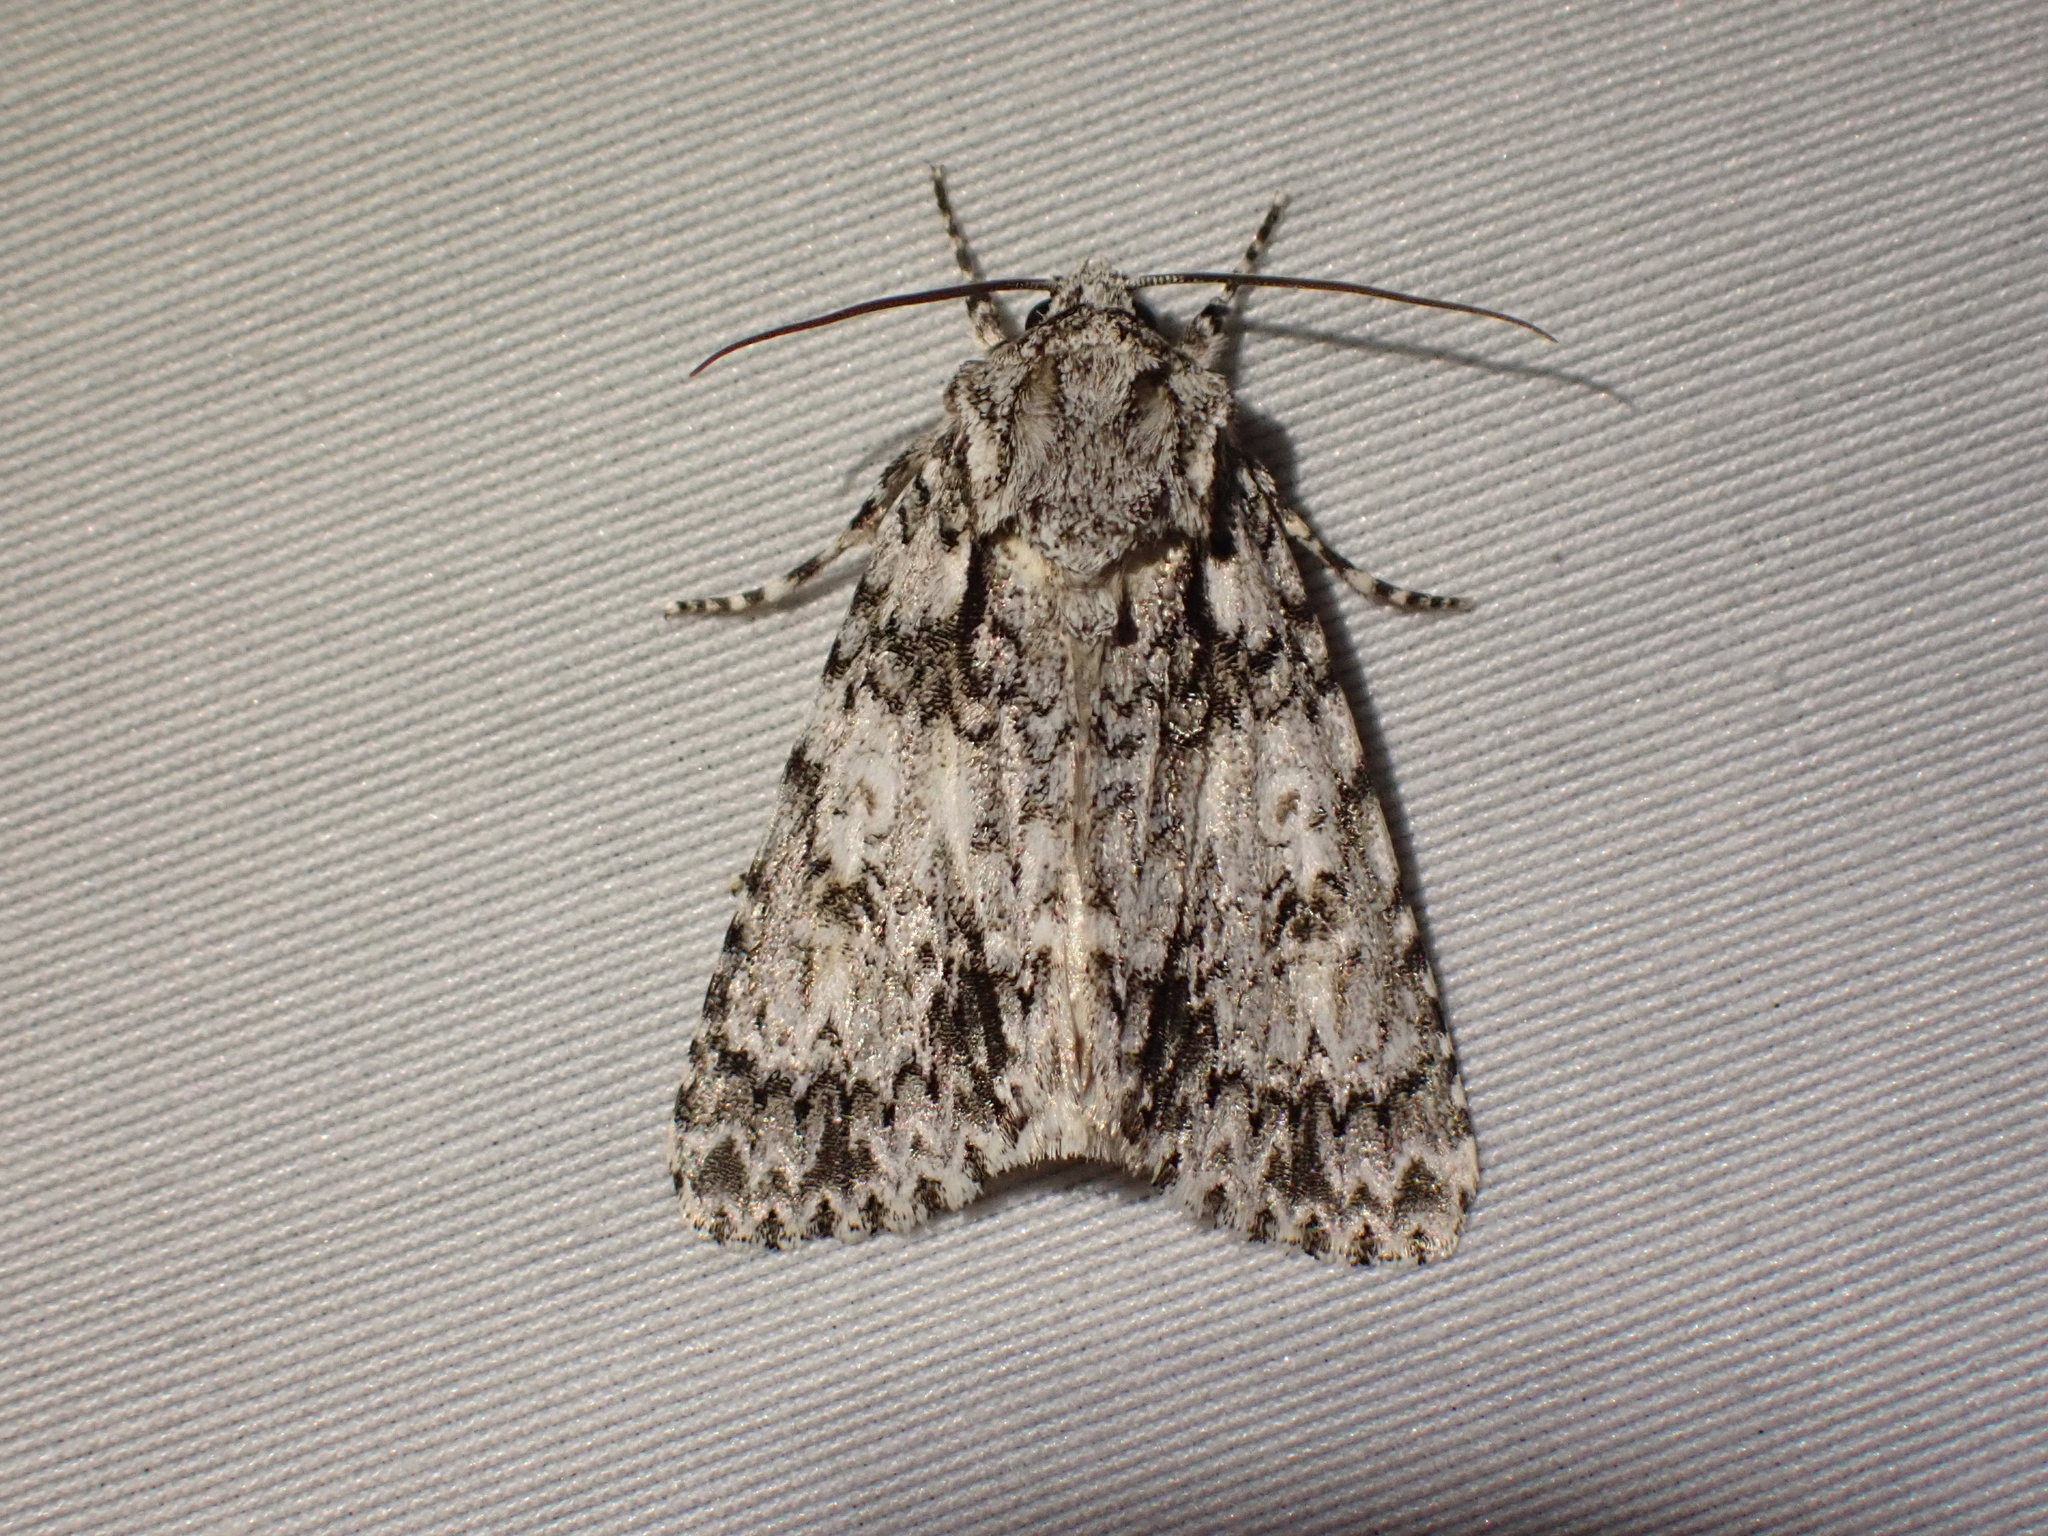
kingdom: Animalia
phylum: Arthropoda
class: Insecta
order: Lepidoptera
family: Noctuidae
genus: Acronicta
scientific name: Acronicta marmorata
